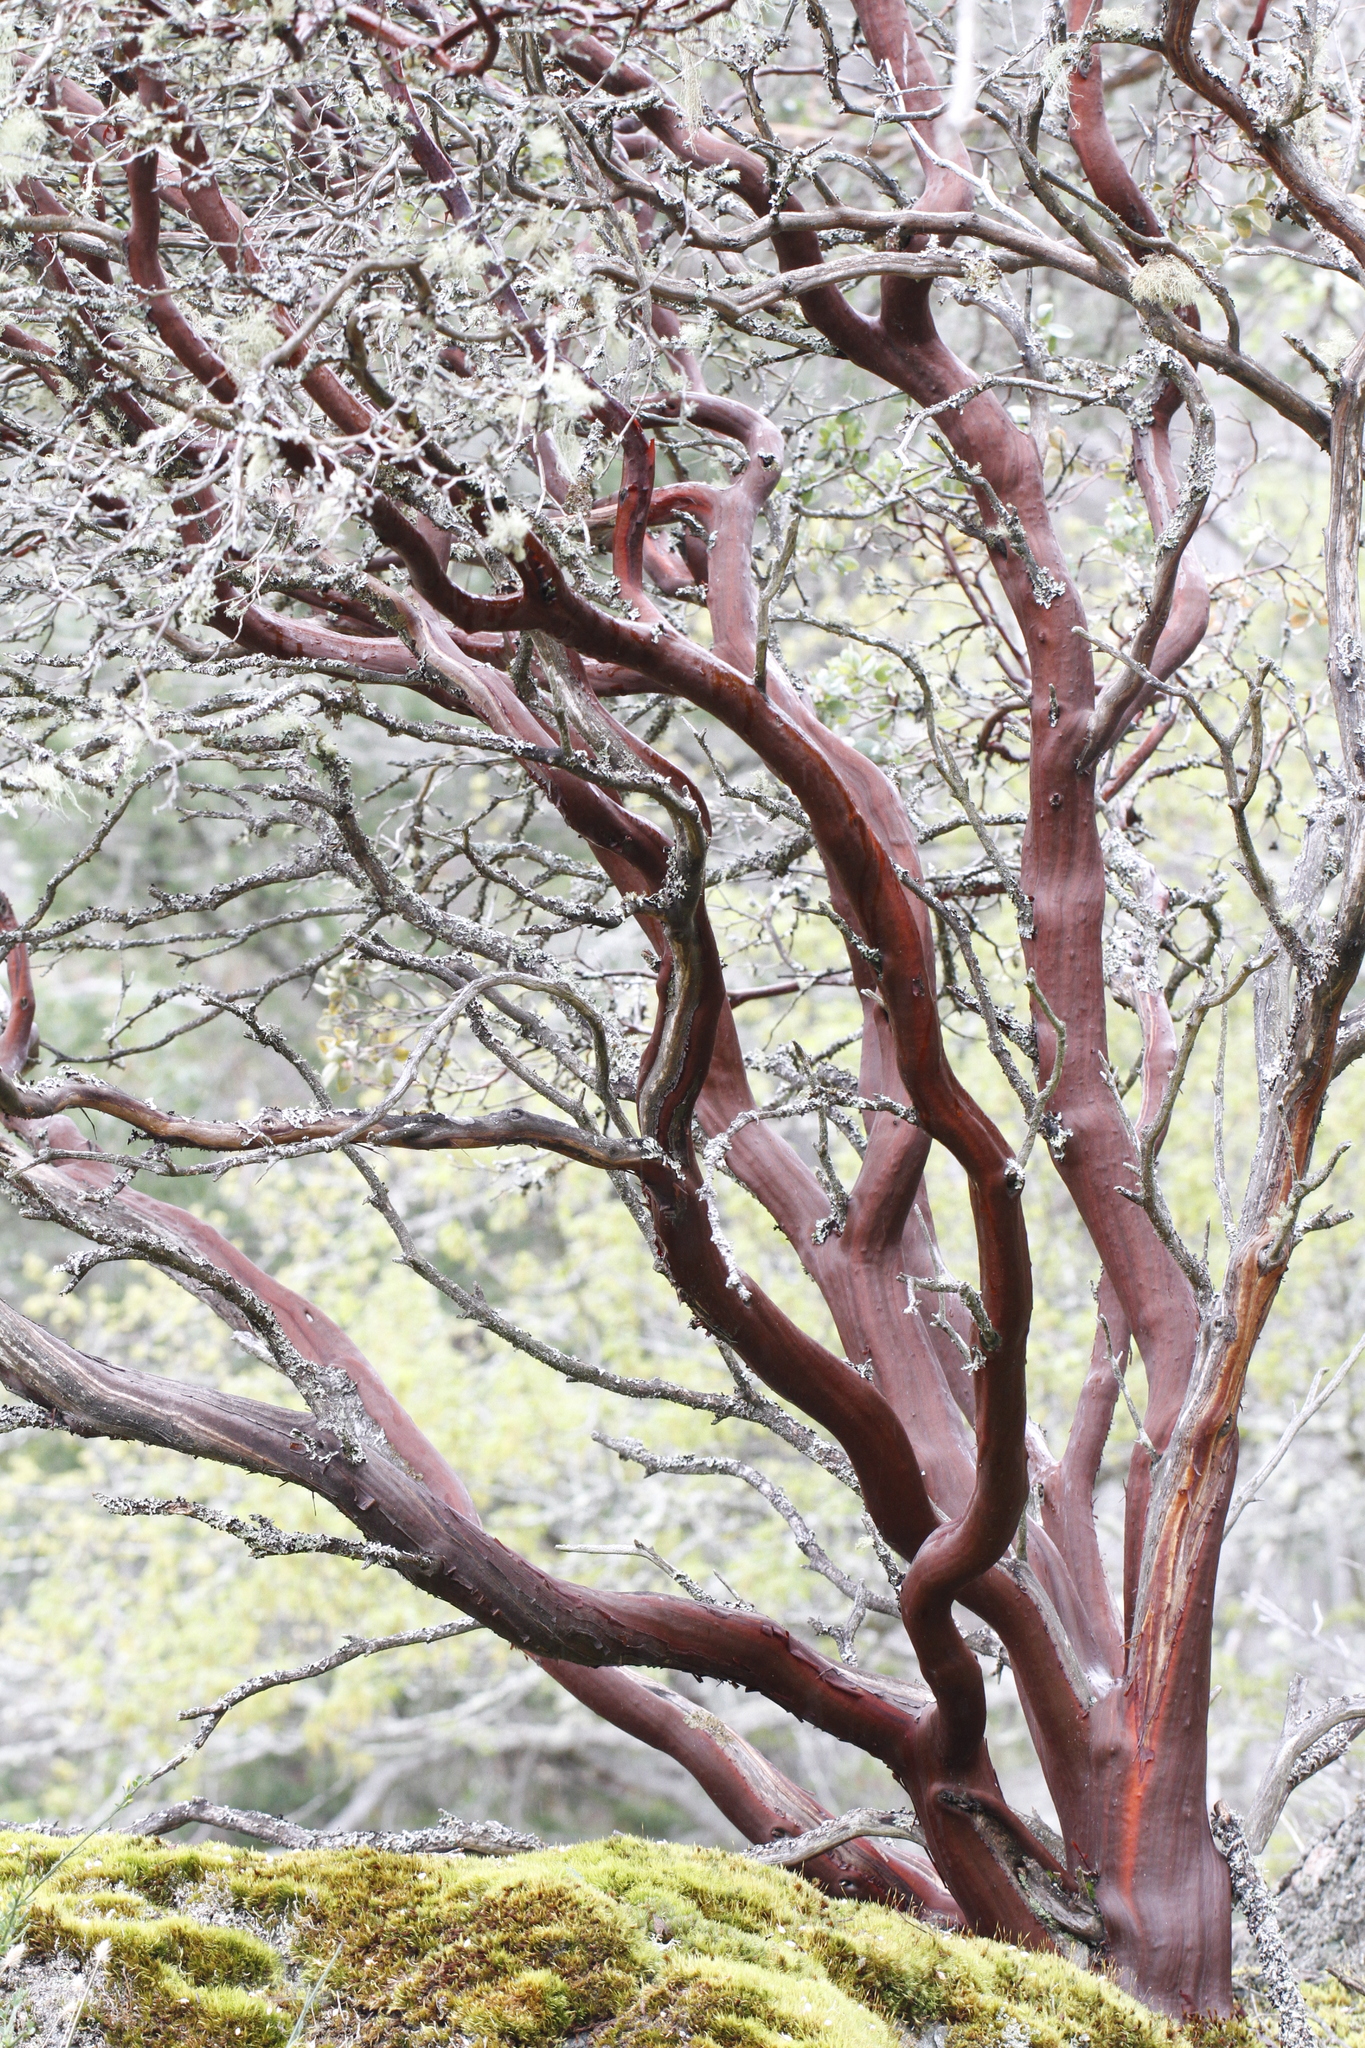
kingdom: Plantae
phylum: Tracheophyta
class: Magnoliopsida
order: Ericales
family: Ericaceae
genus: Arctostaphylos
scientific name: Arctostaphylos columbiana
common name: Bristly bearberry
